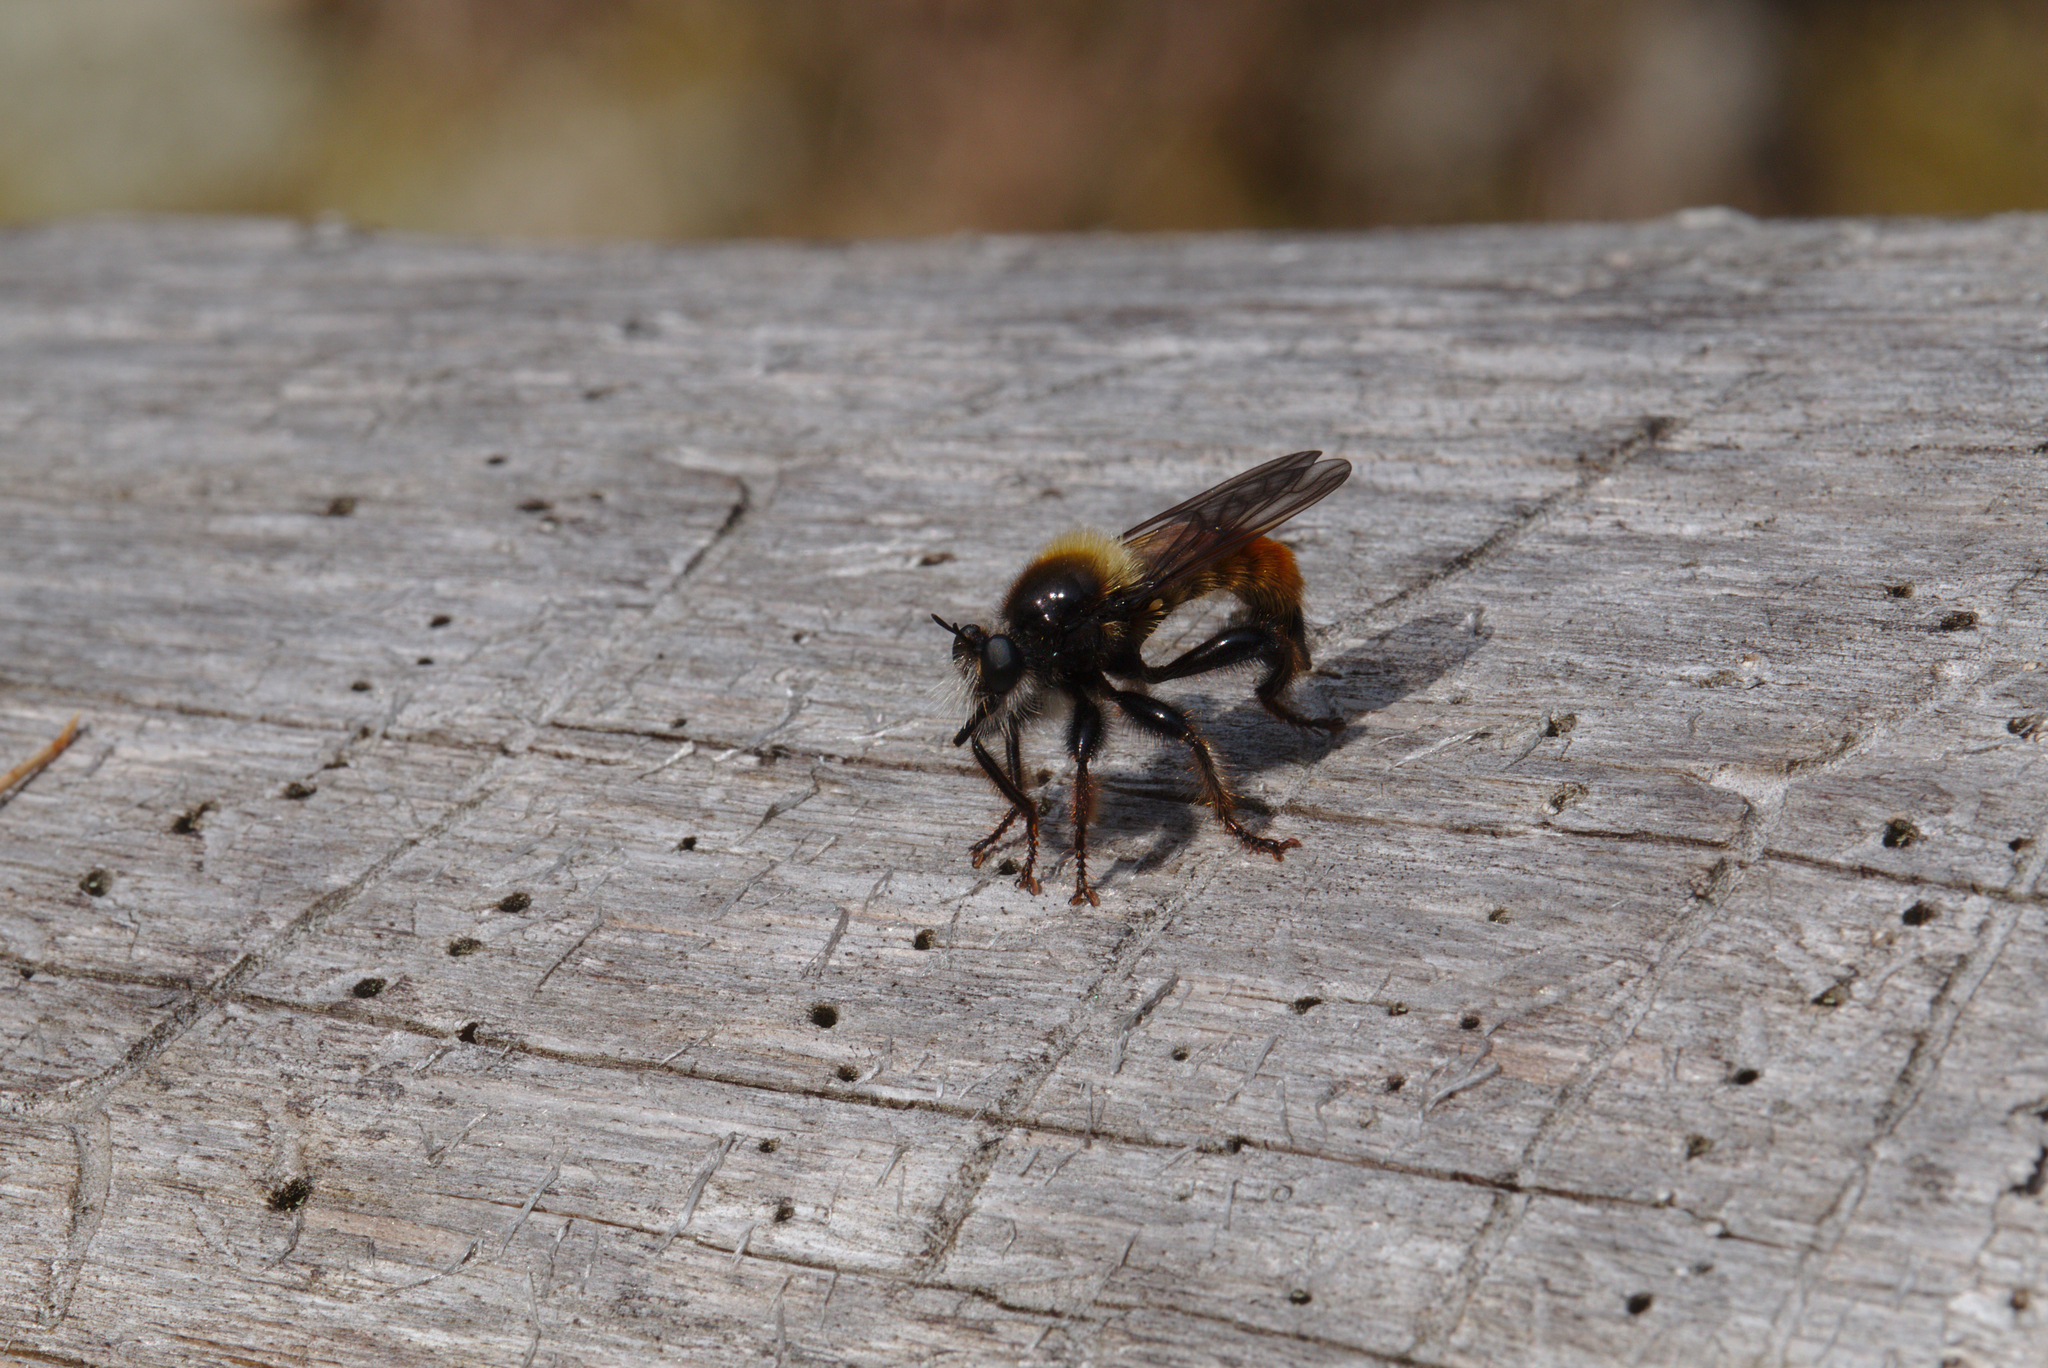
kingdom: Animalia
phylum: Arthropoda
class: Insecta
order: Diptera
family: Asilidae
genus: Laphria
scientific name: Laphria flava
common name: Bumblebee robberfly
